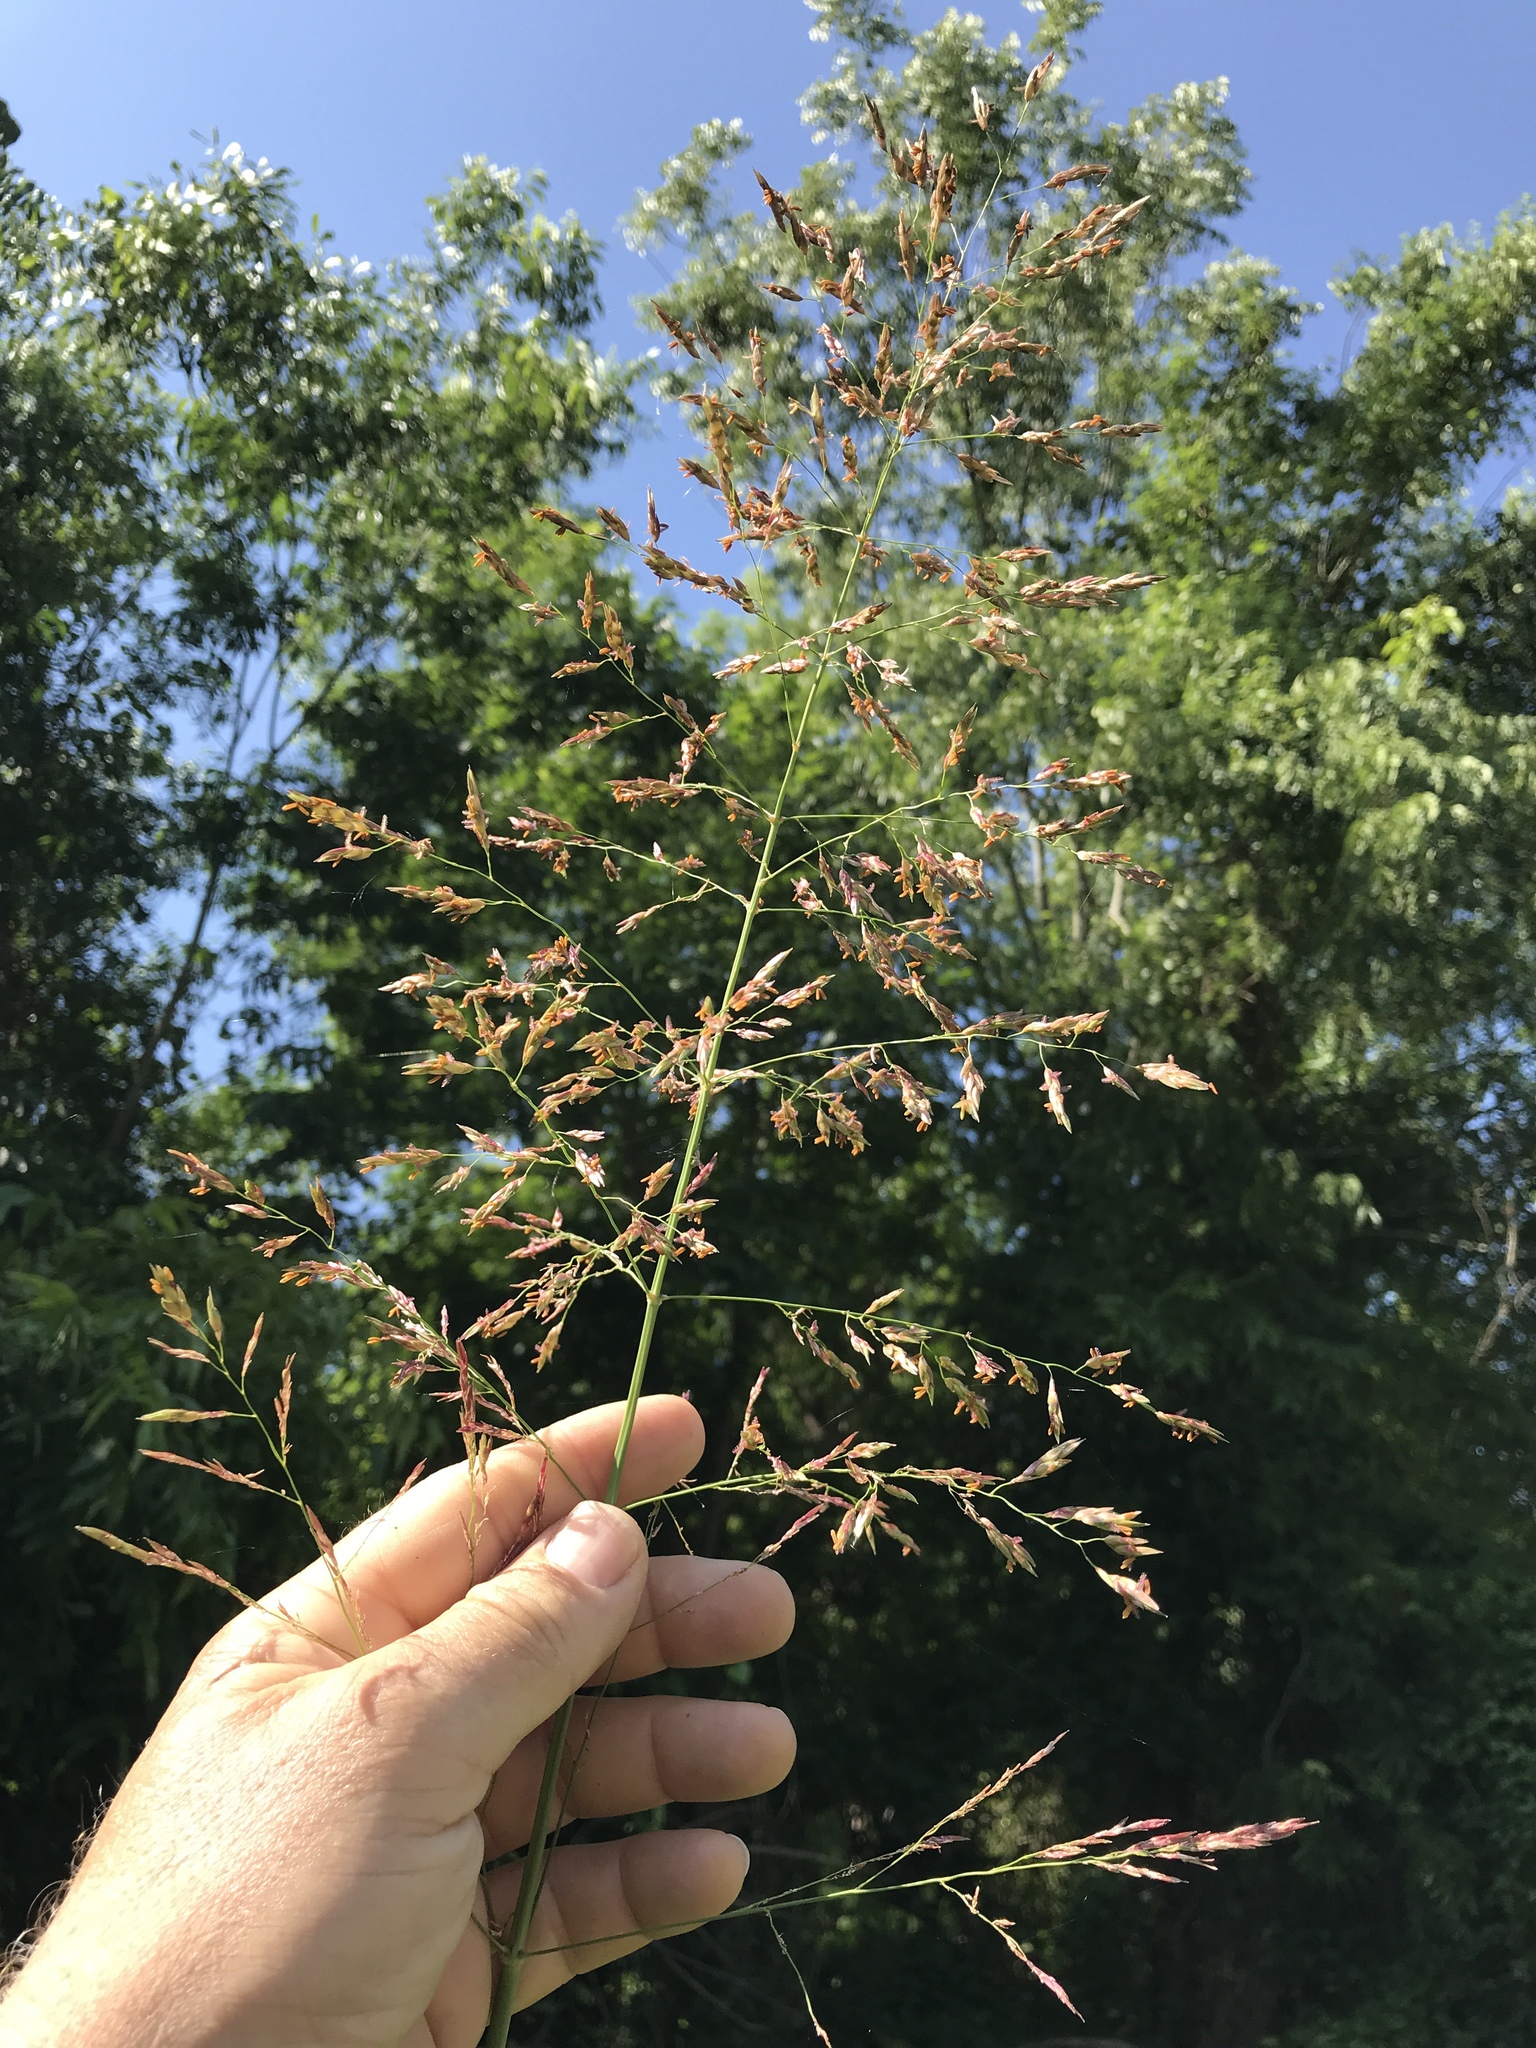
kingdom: Plantae
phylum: Tracheophyta
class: Liliopsida
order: Poales
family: Poaceae
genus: Sorghum
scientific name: Sorghum halepense
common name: Johnson-grass
